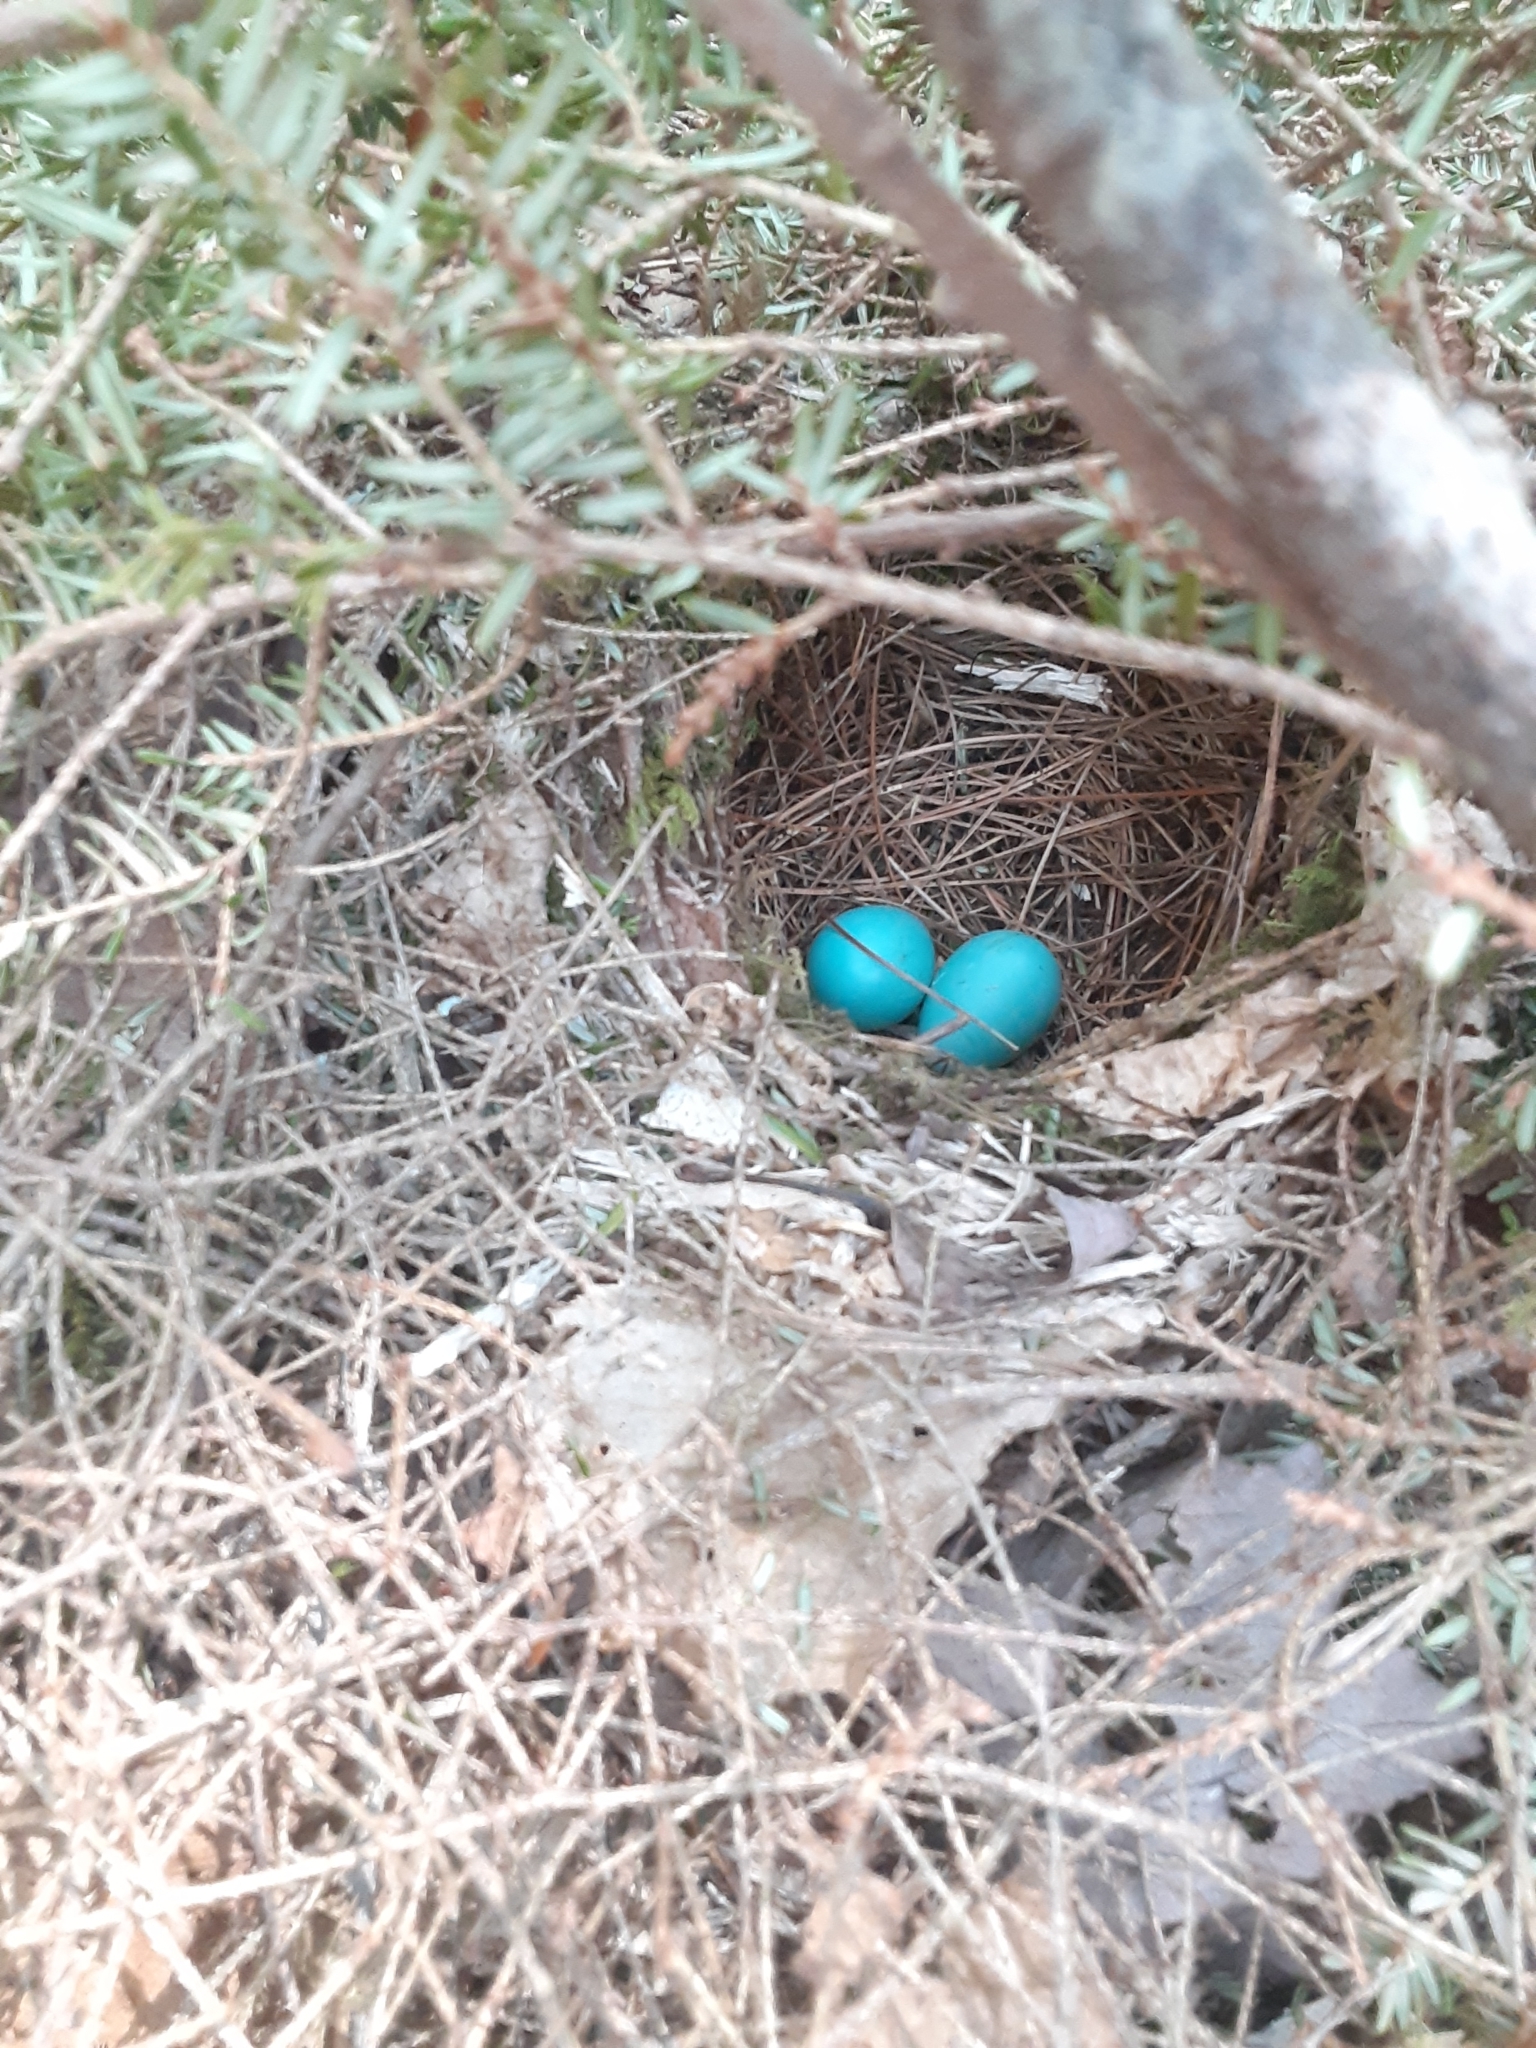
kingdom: Animalia
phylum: Chordata
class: Aves
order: Passeriformes
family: Turdidae
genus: Catharus
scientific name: Catharus guttatus
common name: Hermit thrush
